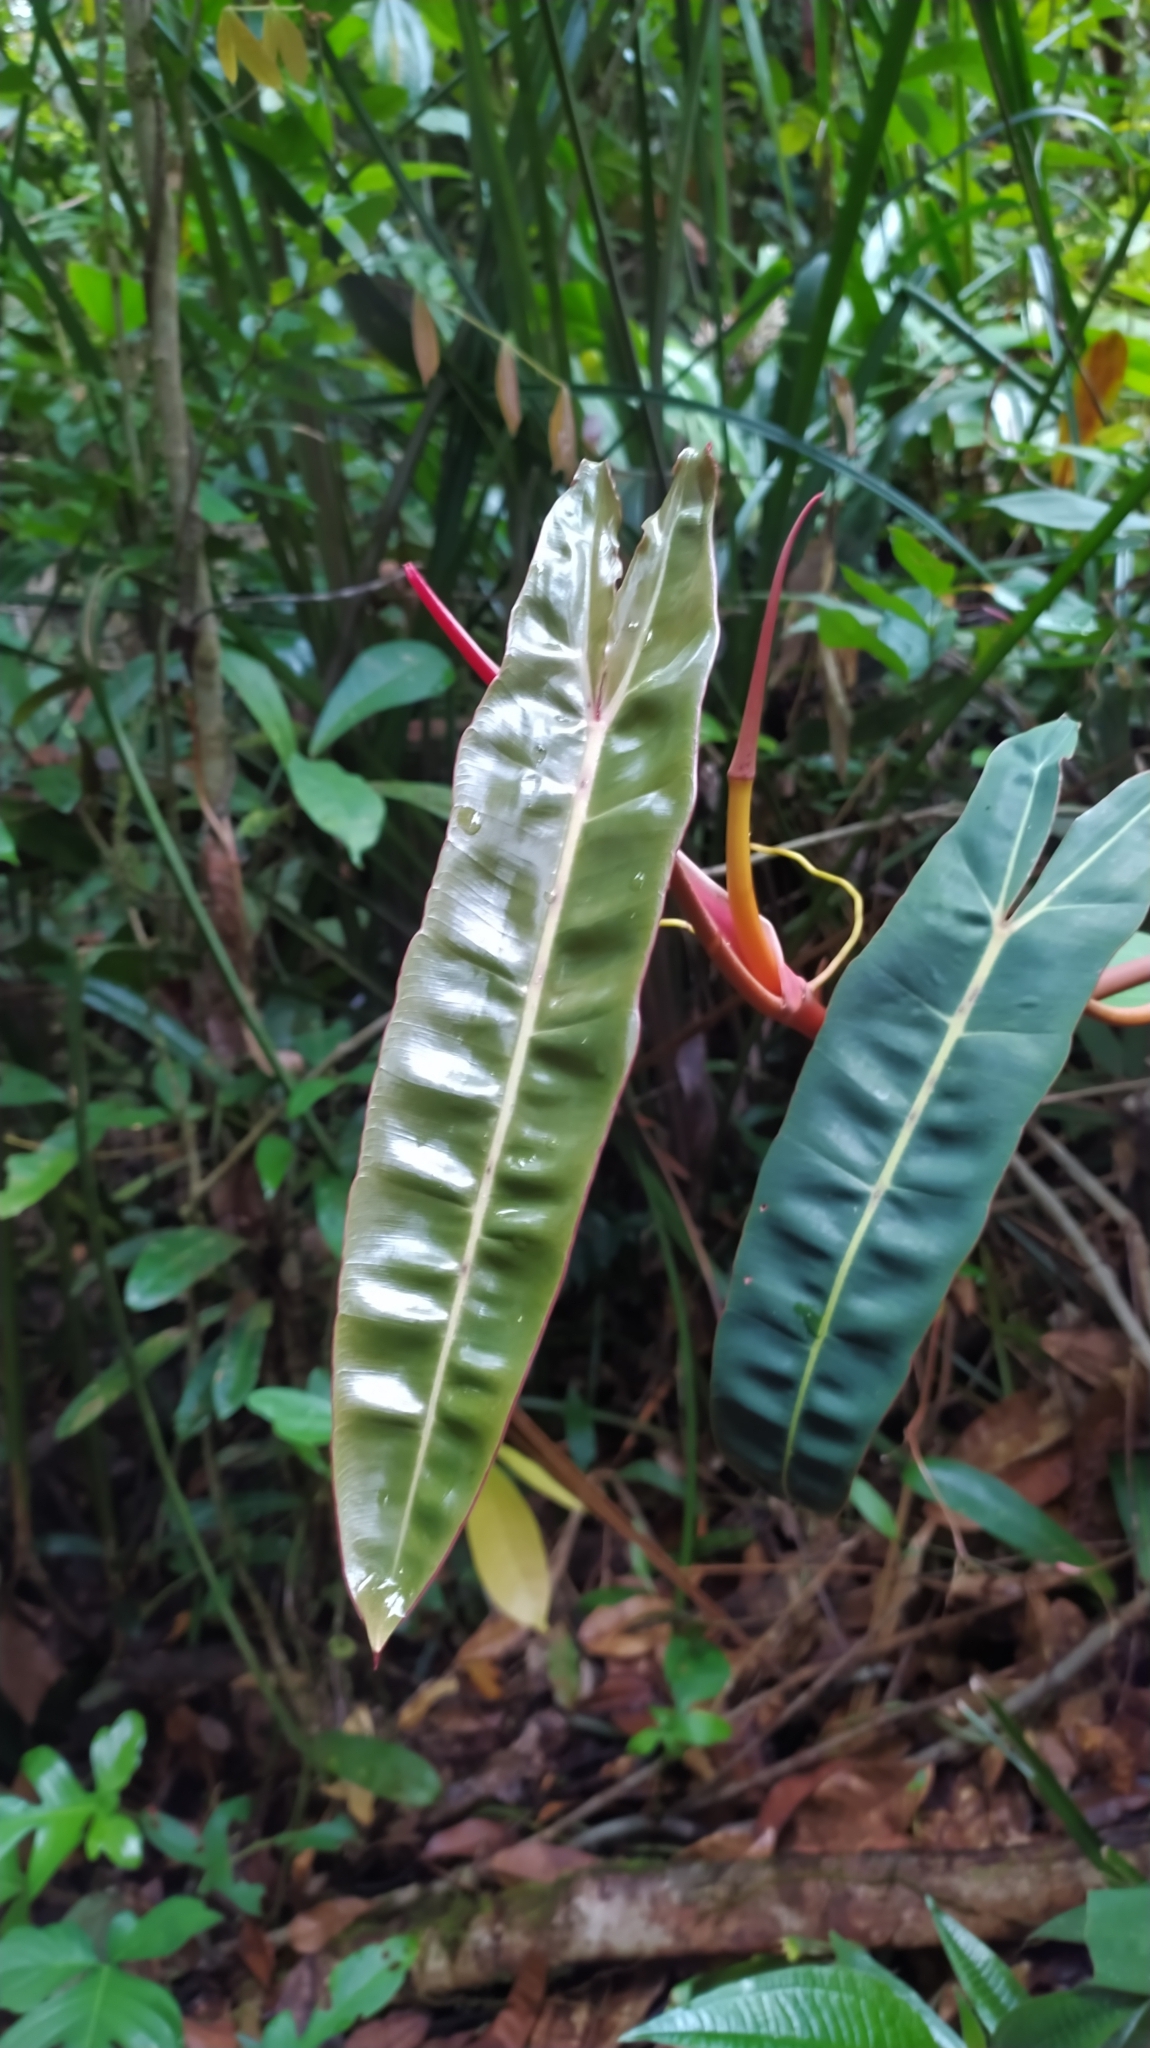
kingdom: Plantae
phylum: Tracheophyta
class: Liliopsida
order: Alismatales
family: Araceae
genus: Philodendron
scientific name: Philodendron billietiae
